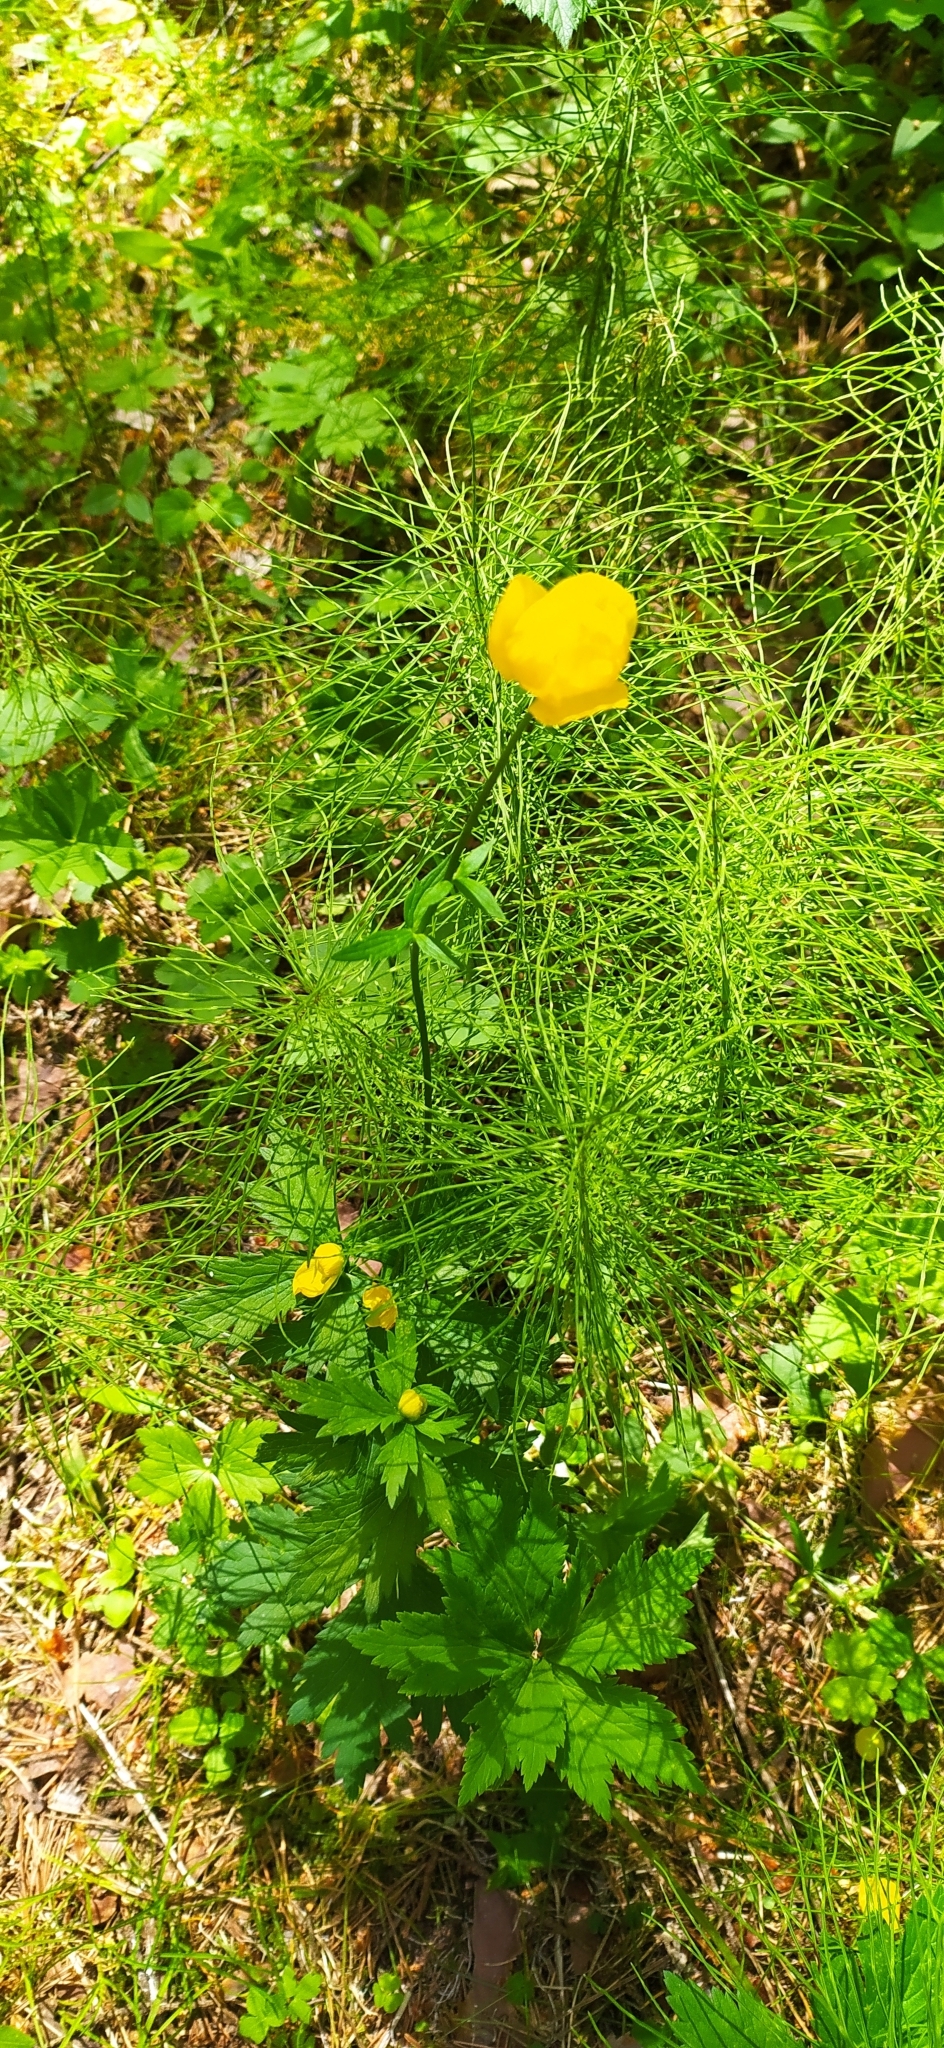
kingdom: Plantae
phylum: Tracheophyta
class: Magnoliopsida
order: Ranunculales
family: Ranunculaceae
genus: Trollius
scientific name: Trollius europaeus
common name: European globeflower
